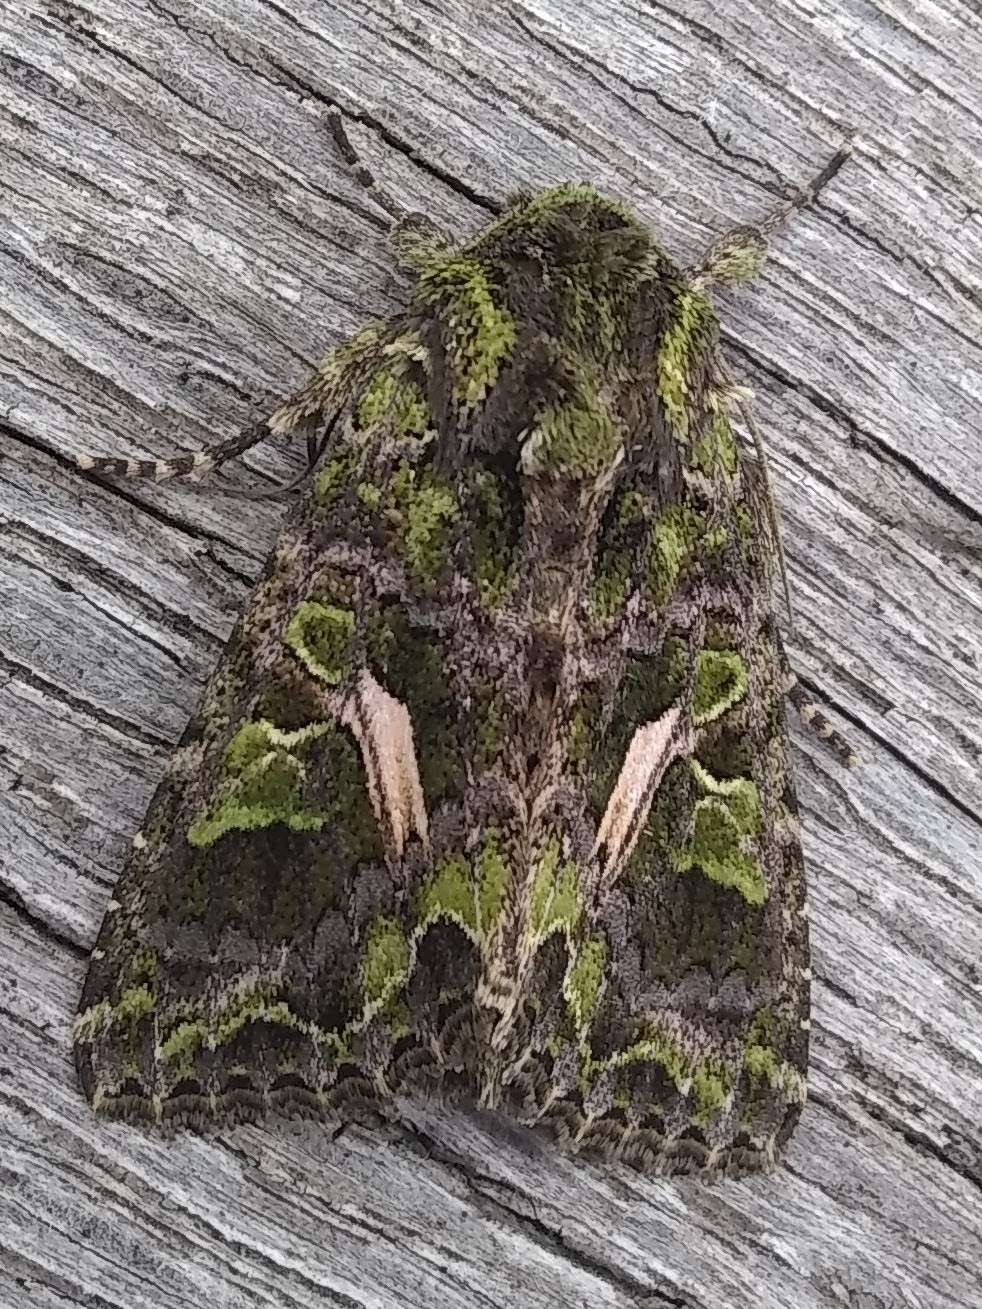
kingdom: Animalia
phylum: Arthropoda
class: Insecta
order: Lepidoptera
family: Noctuidae
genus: Trachea
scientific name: Trachea atriplicis
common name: Orache moth
